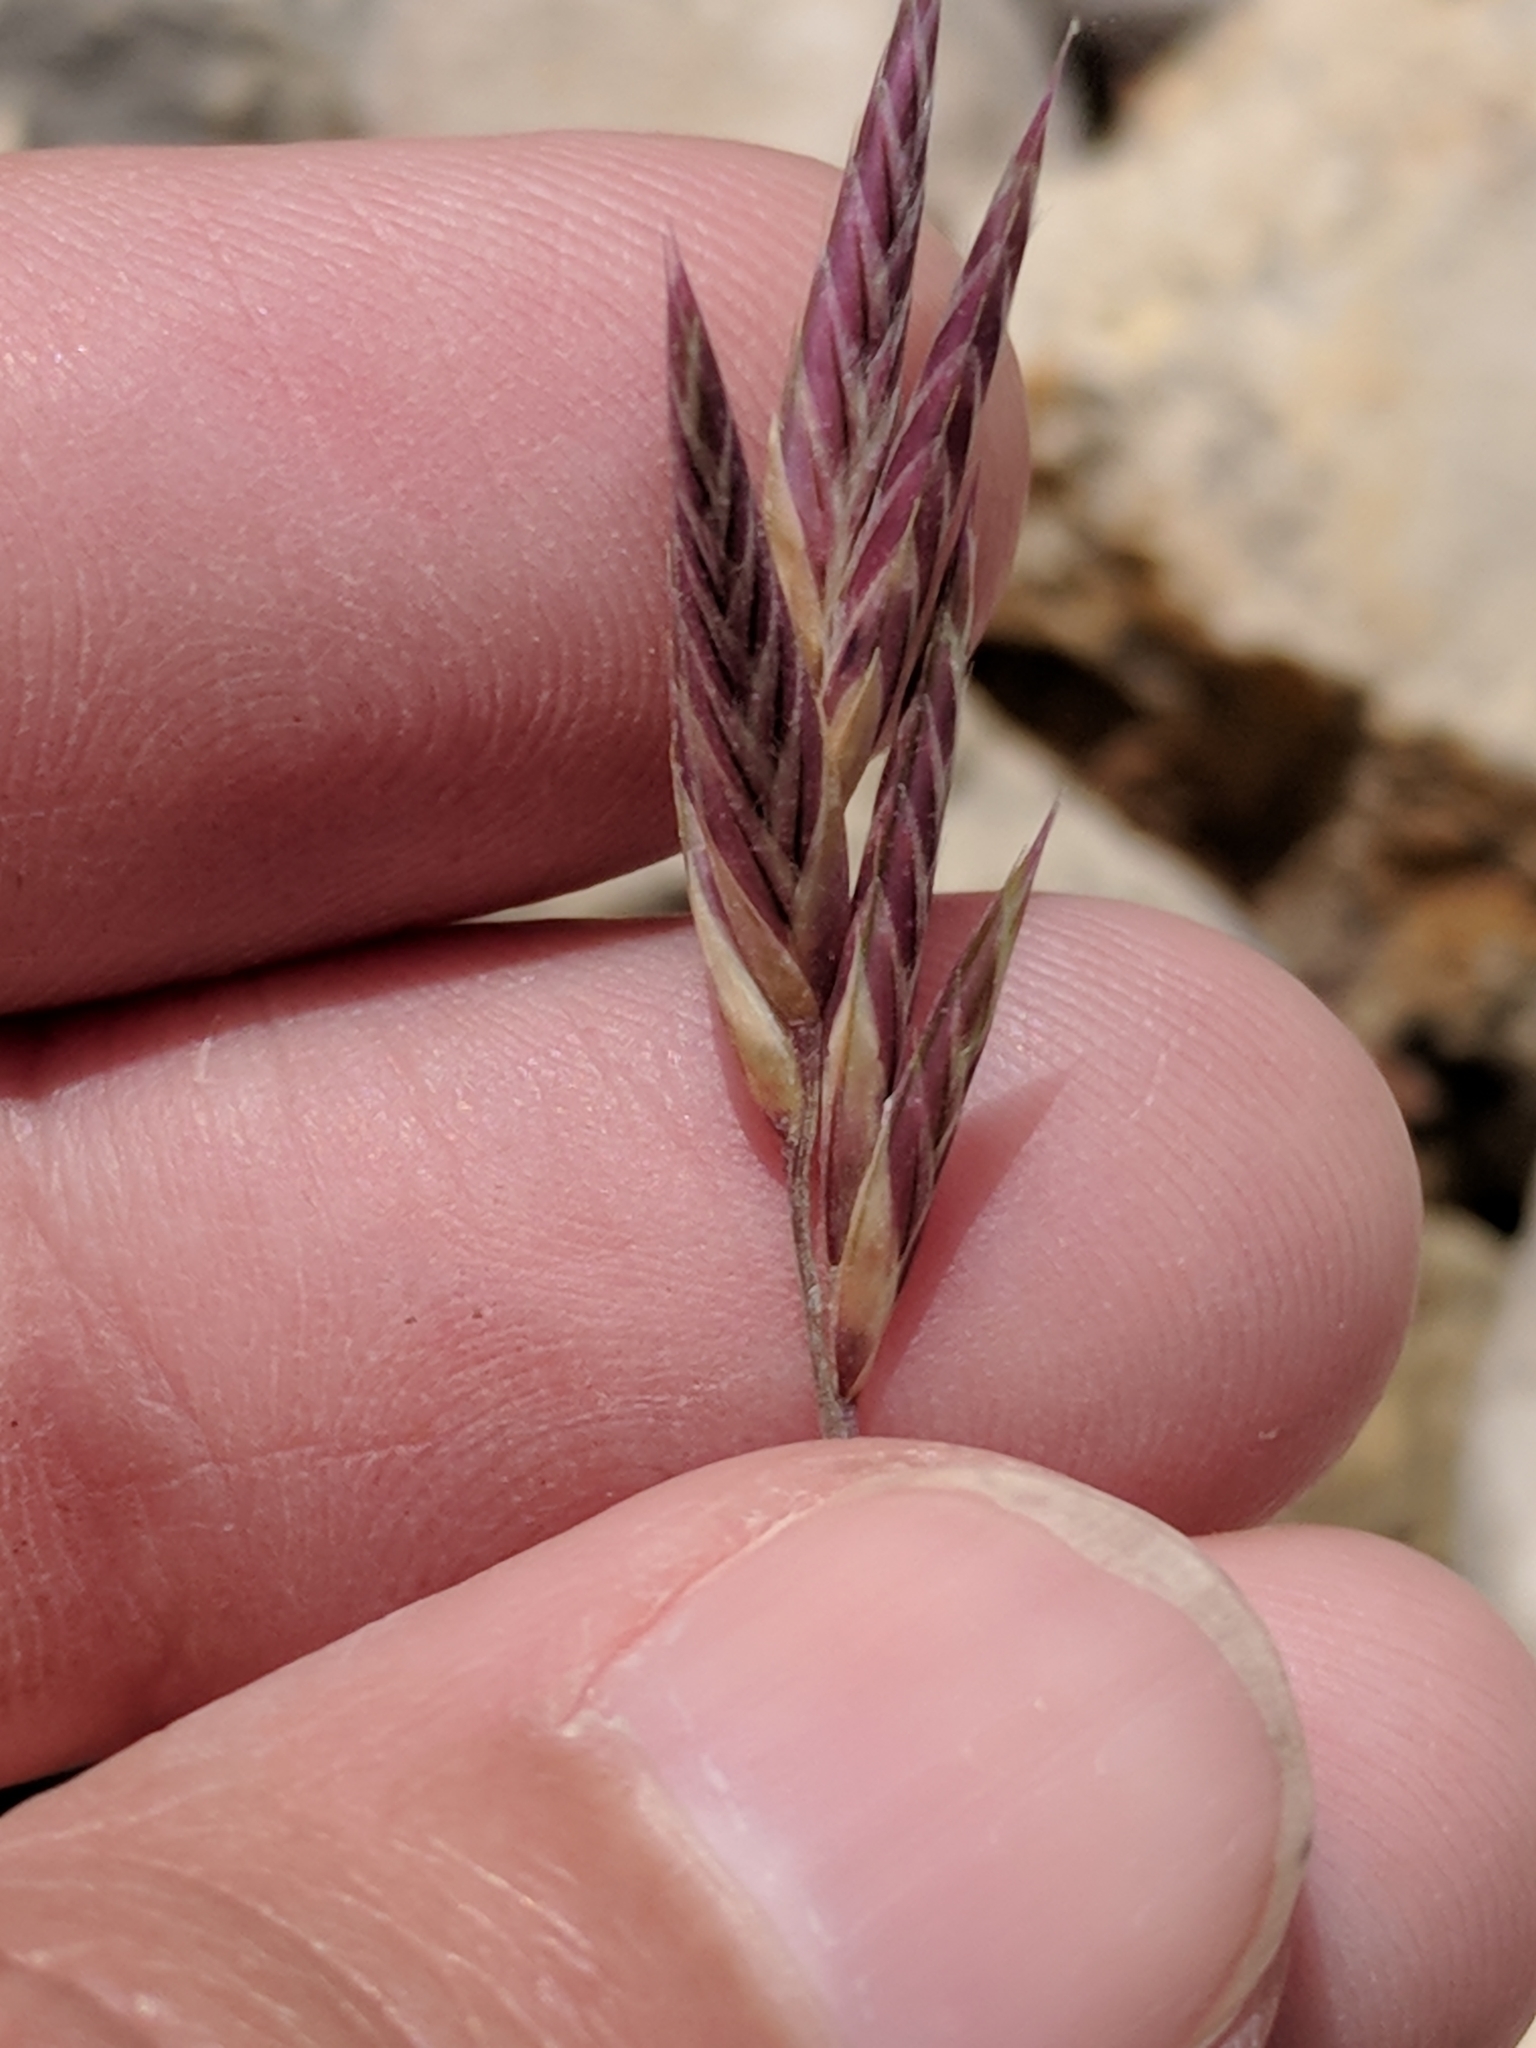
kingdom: Plantae
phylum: Tracheophyta
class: Liliopsida
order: Poales
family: Poaceae
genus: Erioneuron
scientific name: Erioneuron pilosum
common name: Hairy woolly grass
